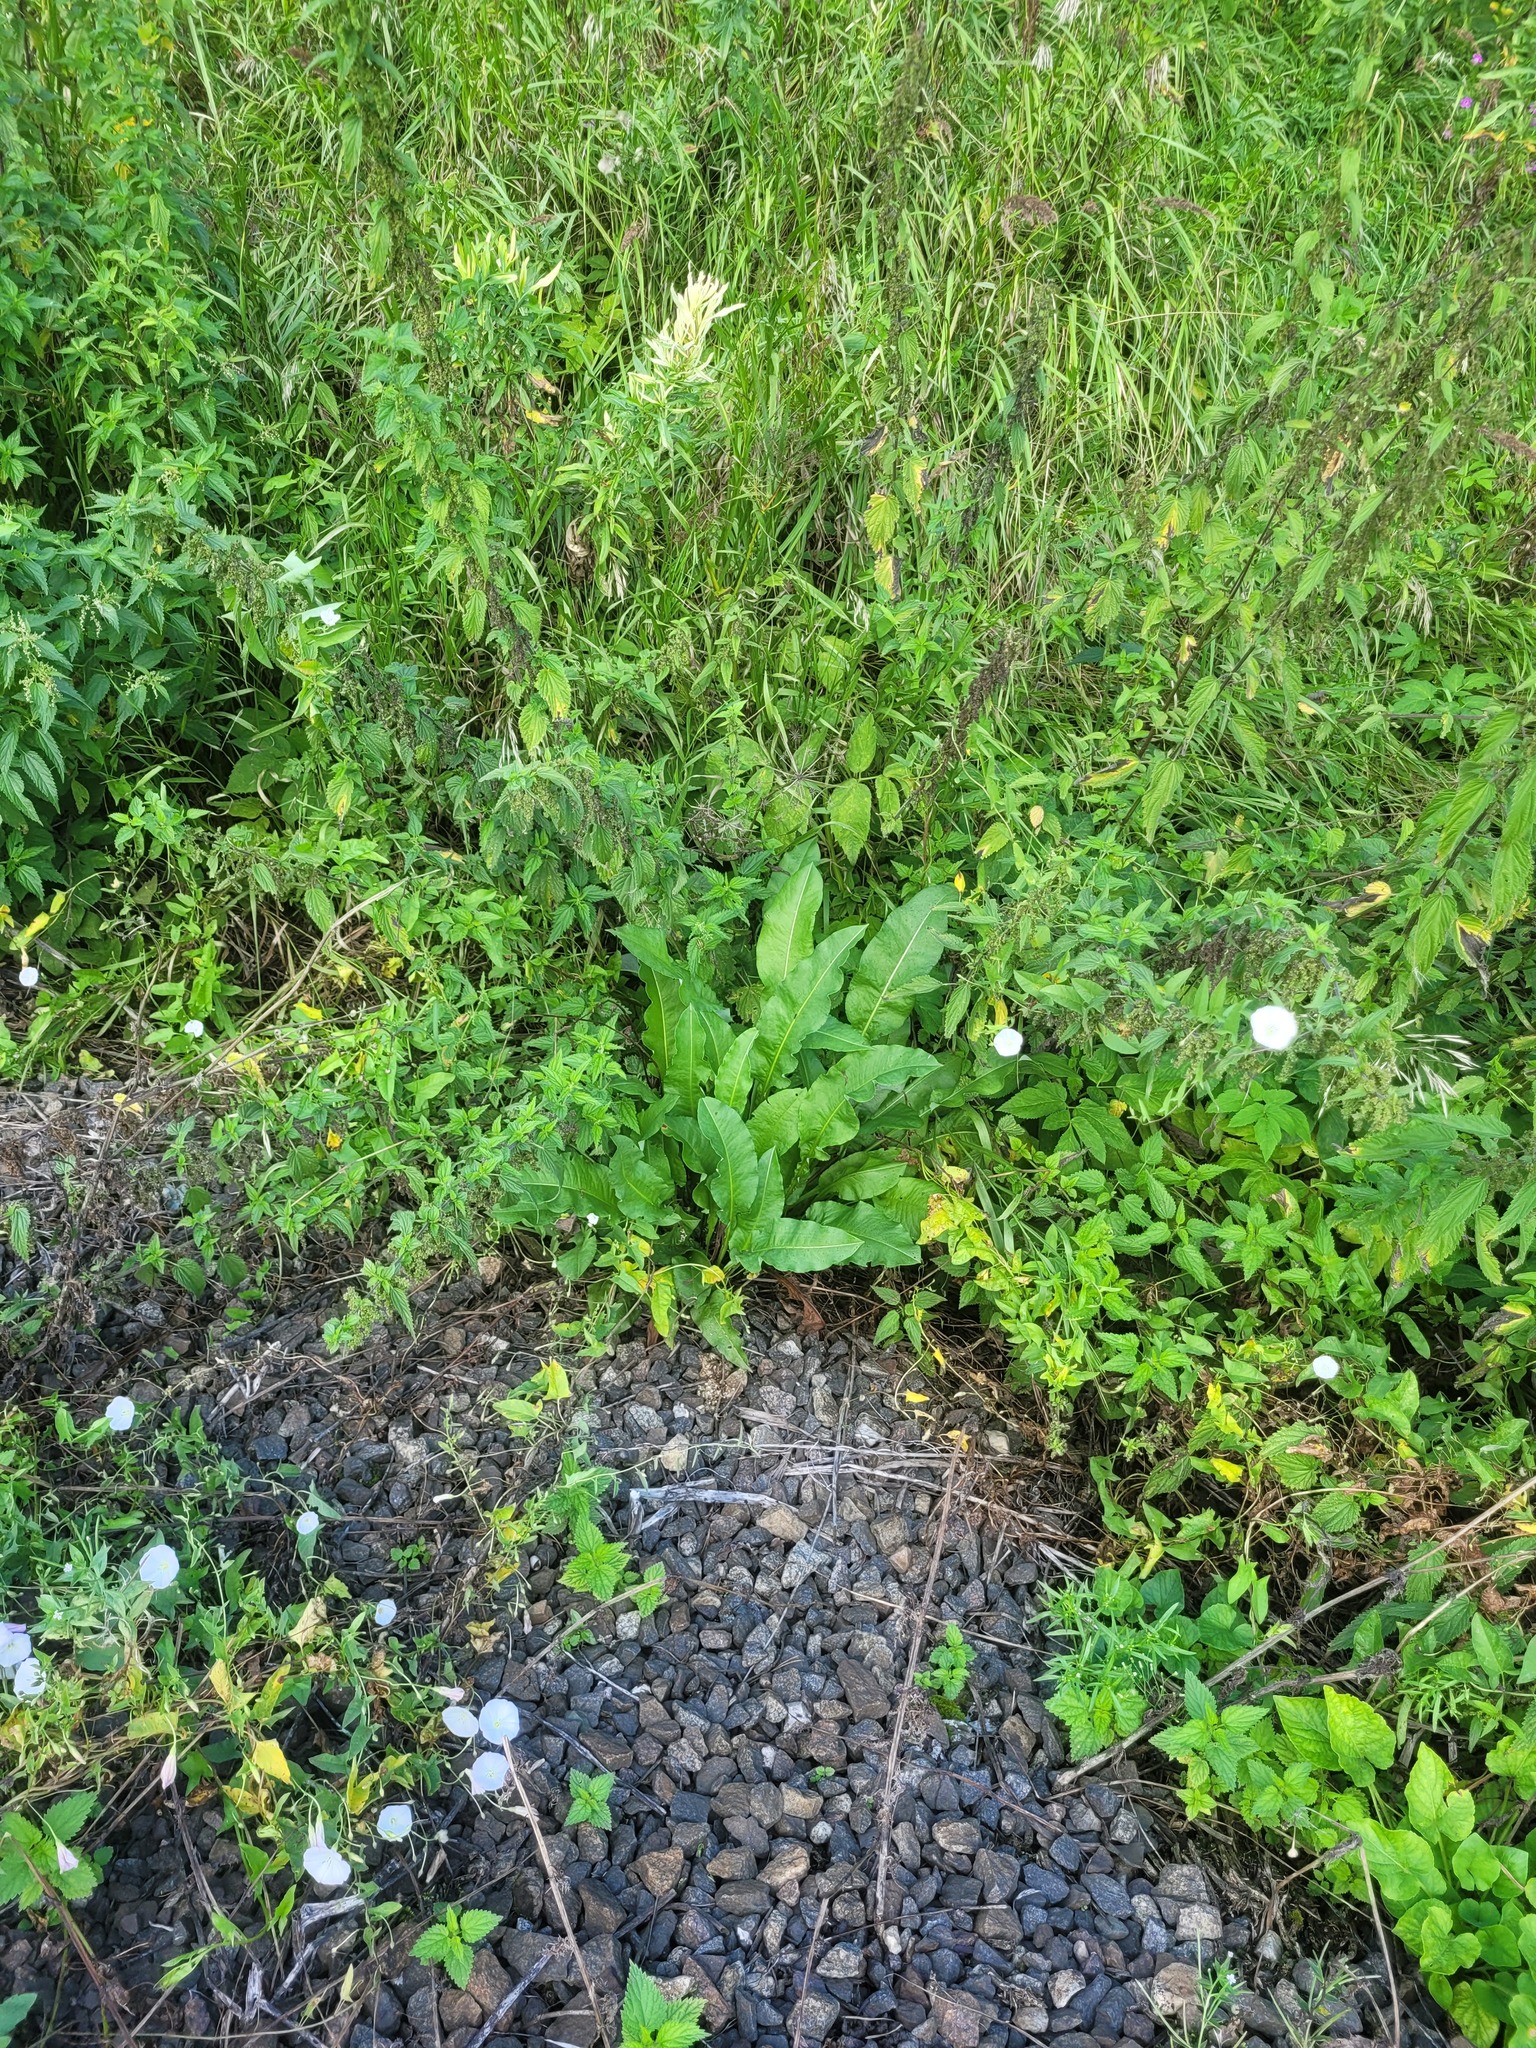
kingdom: Plantae
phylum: Tracheophyta
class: Magnoliopsida
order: Caryophyllales
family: Polygonaceae
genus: Bistorta
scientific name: Bistorta officinalis
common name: Common bistort
